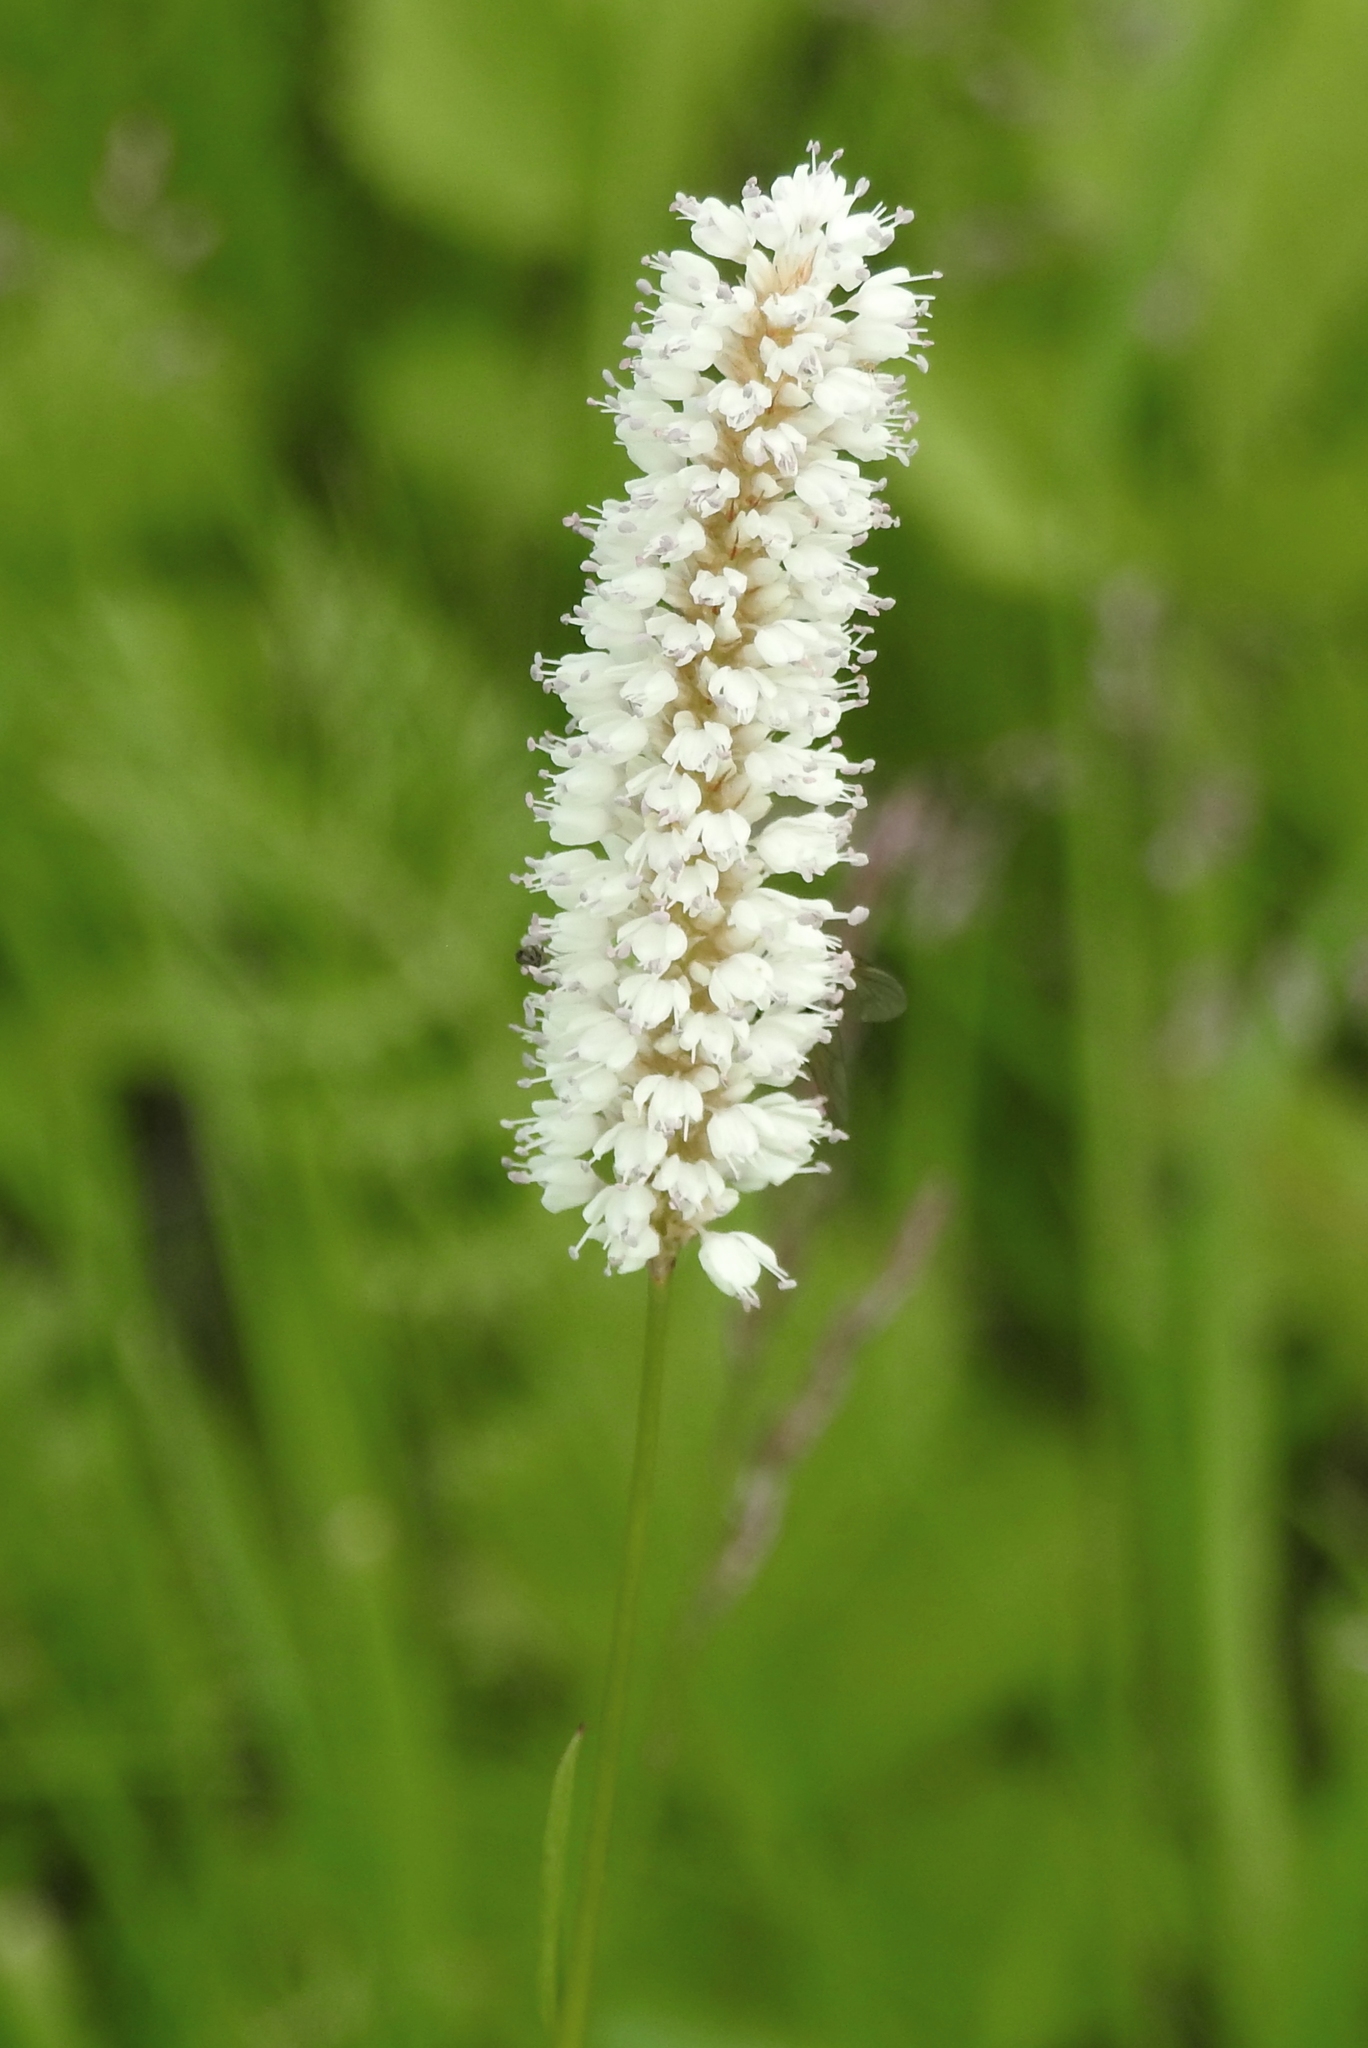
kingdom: Plantae
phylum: Tracheophyta
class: Magnoliopsida
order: Caryophyllales
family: Polygonaceae
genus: Bistorta
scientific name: Bistorta officinalis
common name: Common bistort
